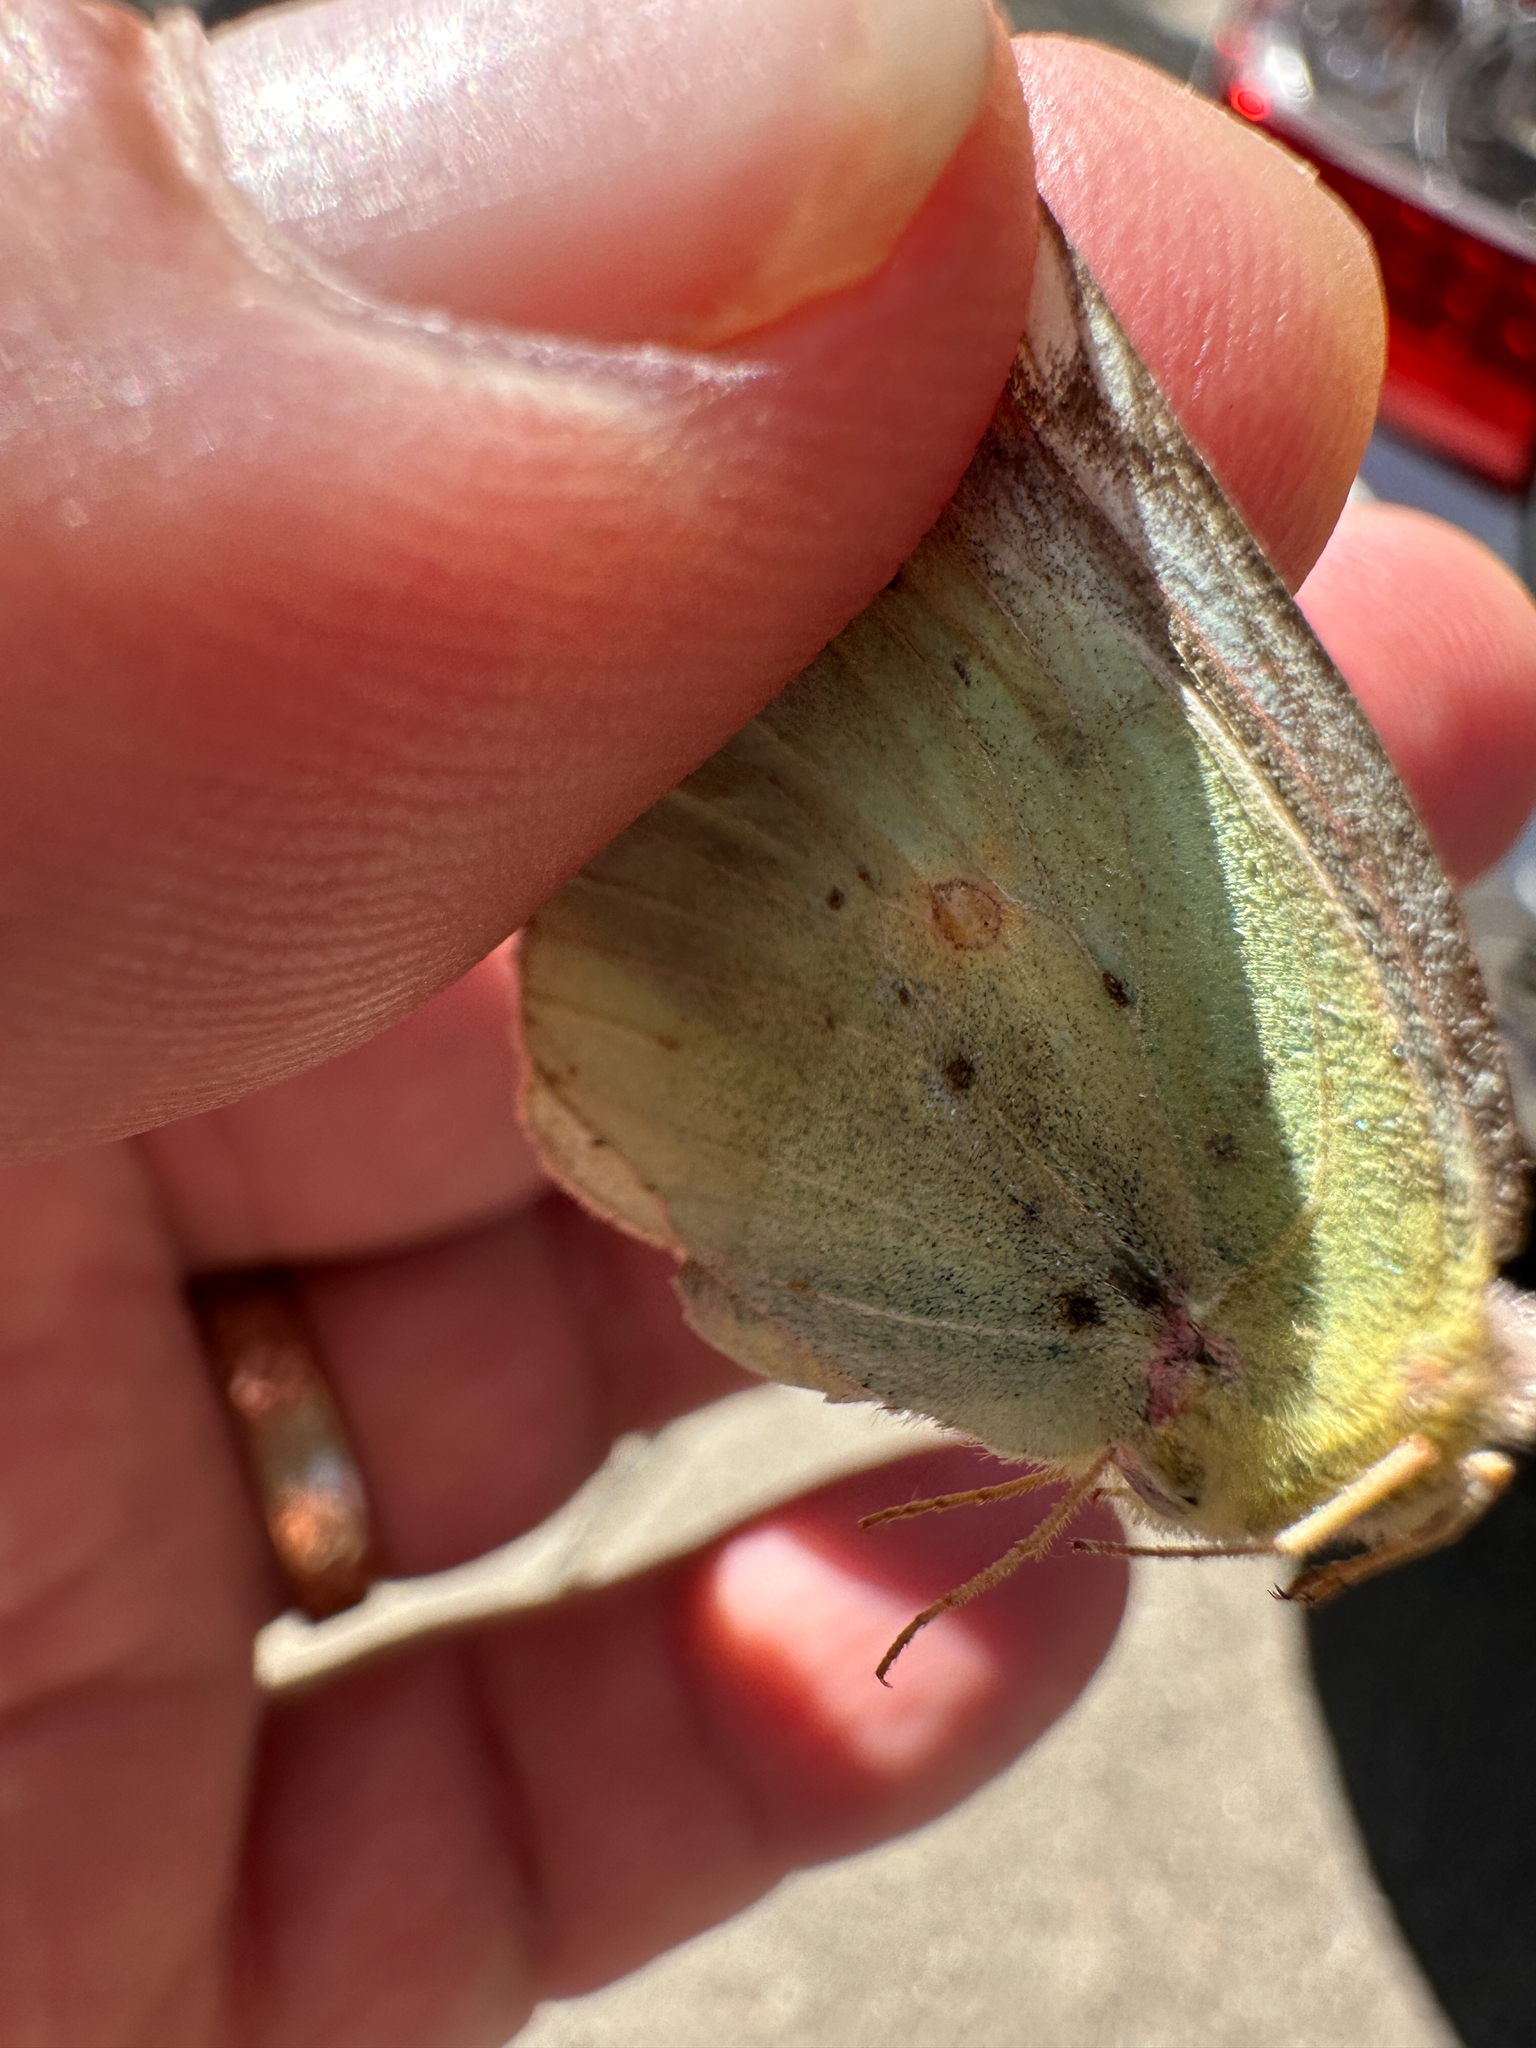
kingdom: Animalia
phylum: Arthropoda
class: Insecta
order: Lepidoptera
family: Pieridae
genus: Colias
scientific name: Colias eurytheme
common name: Alfalfa butterfly
